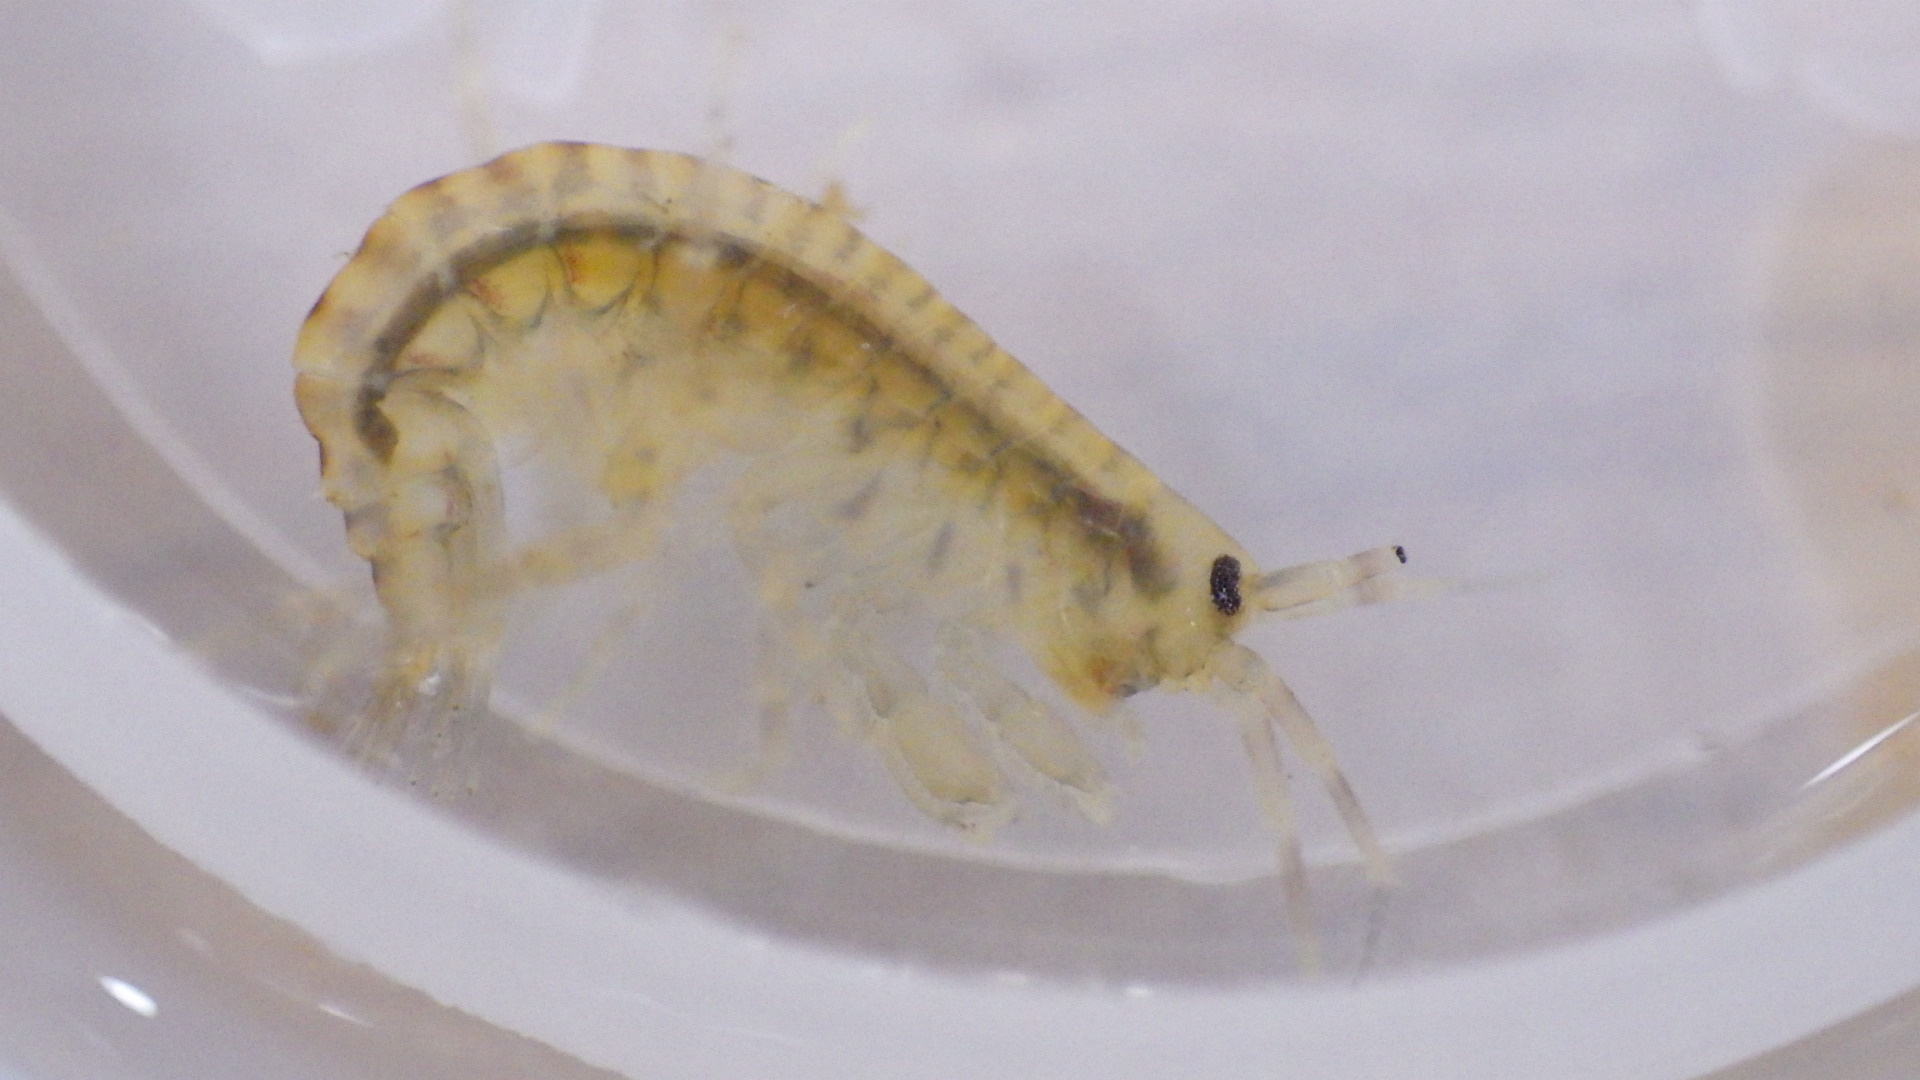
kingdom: Animalia
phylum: Arthropoda
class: Malacostraca
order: Amphipoda
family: Gammaridae
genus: Gammarus
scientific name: Gammarus fasciatus
